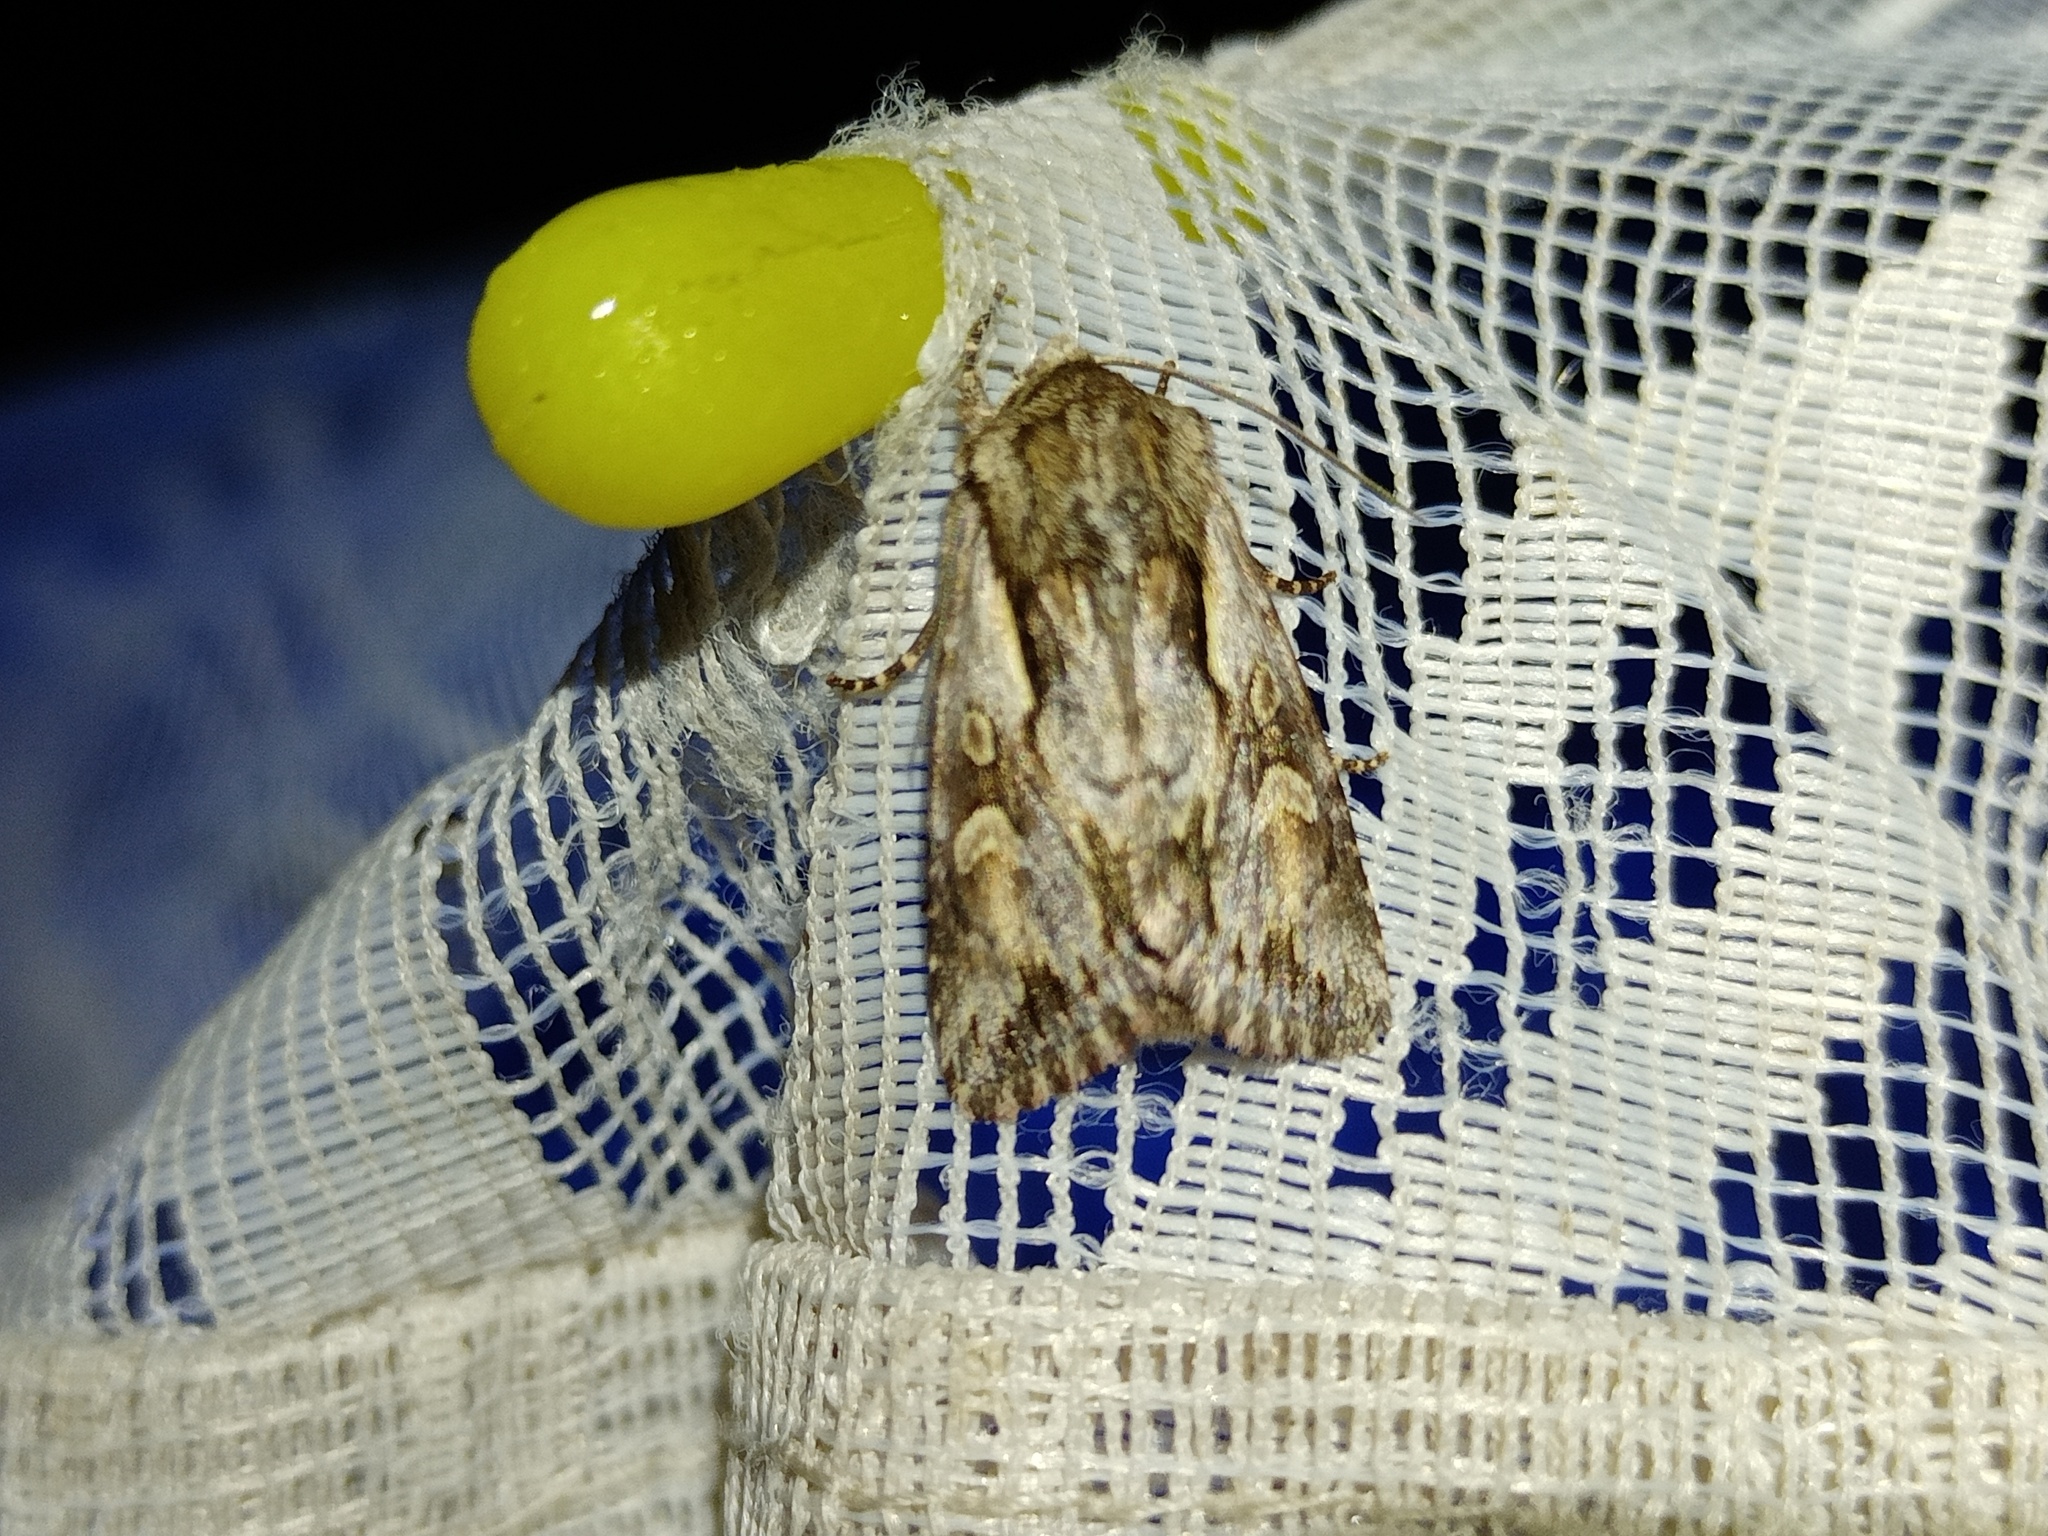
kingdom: Animalia
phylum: Arthropoda
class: Insecta
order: Lepidoptera
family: Noctuidae
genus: Chloantha
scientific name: Chloantha hyperici
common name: Pale-shouldered cloud
